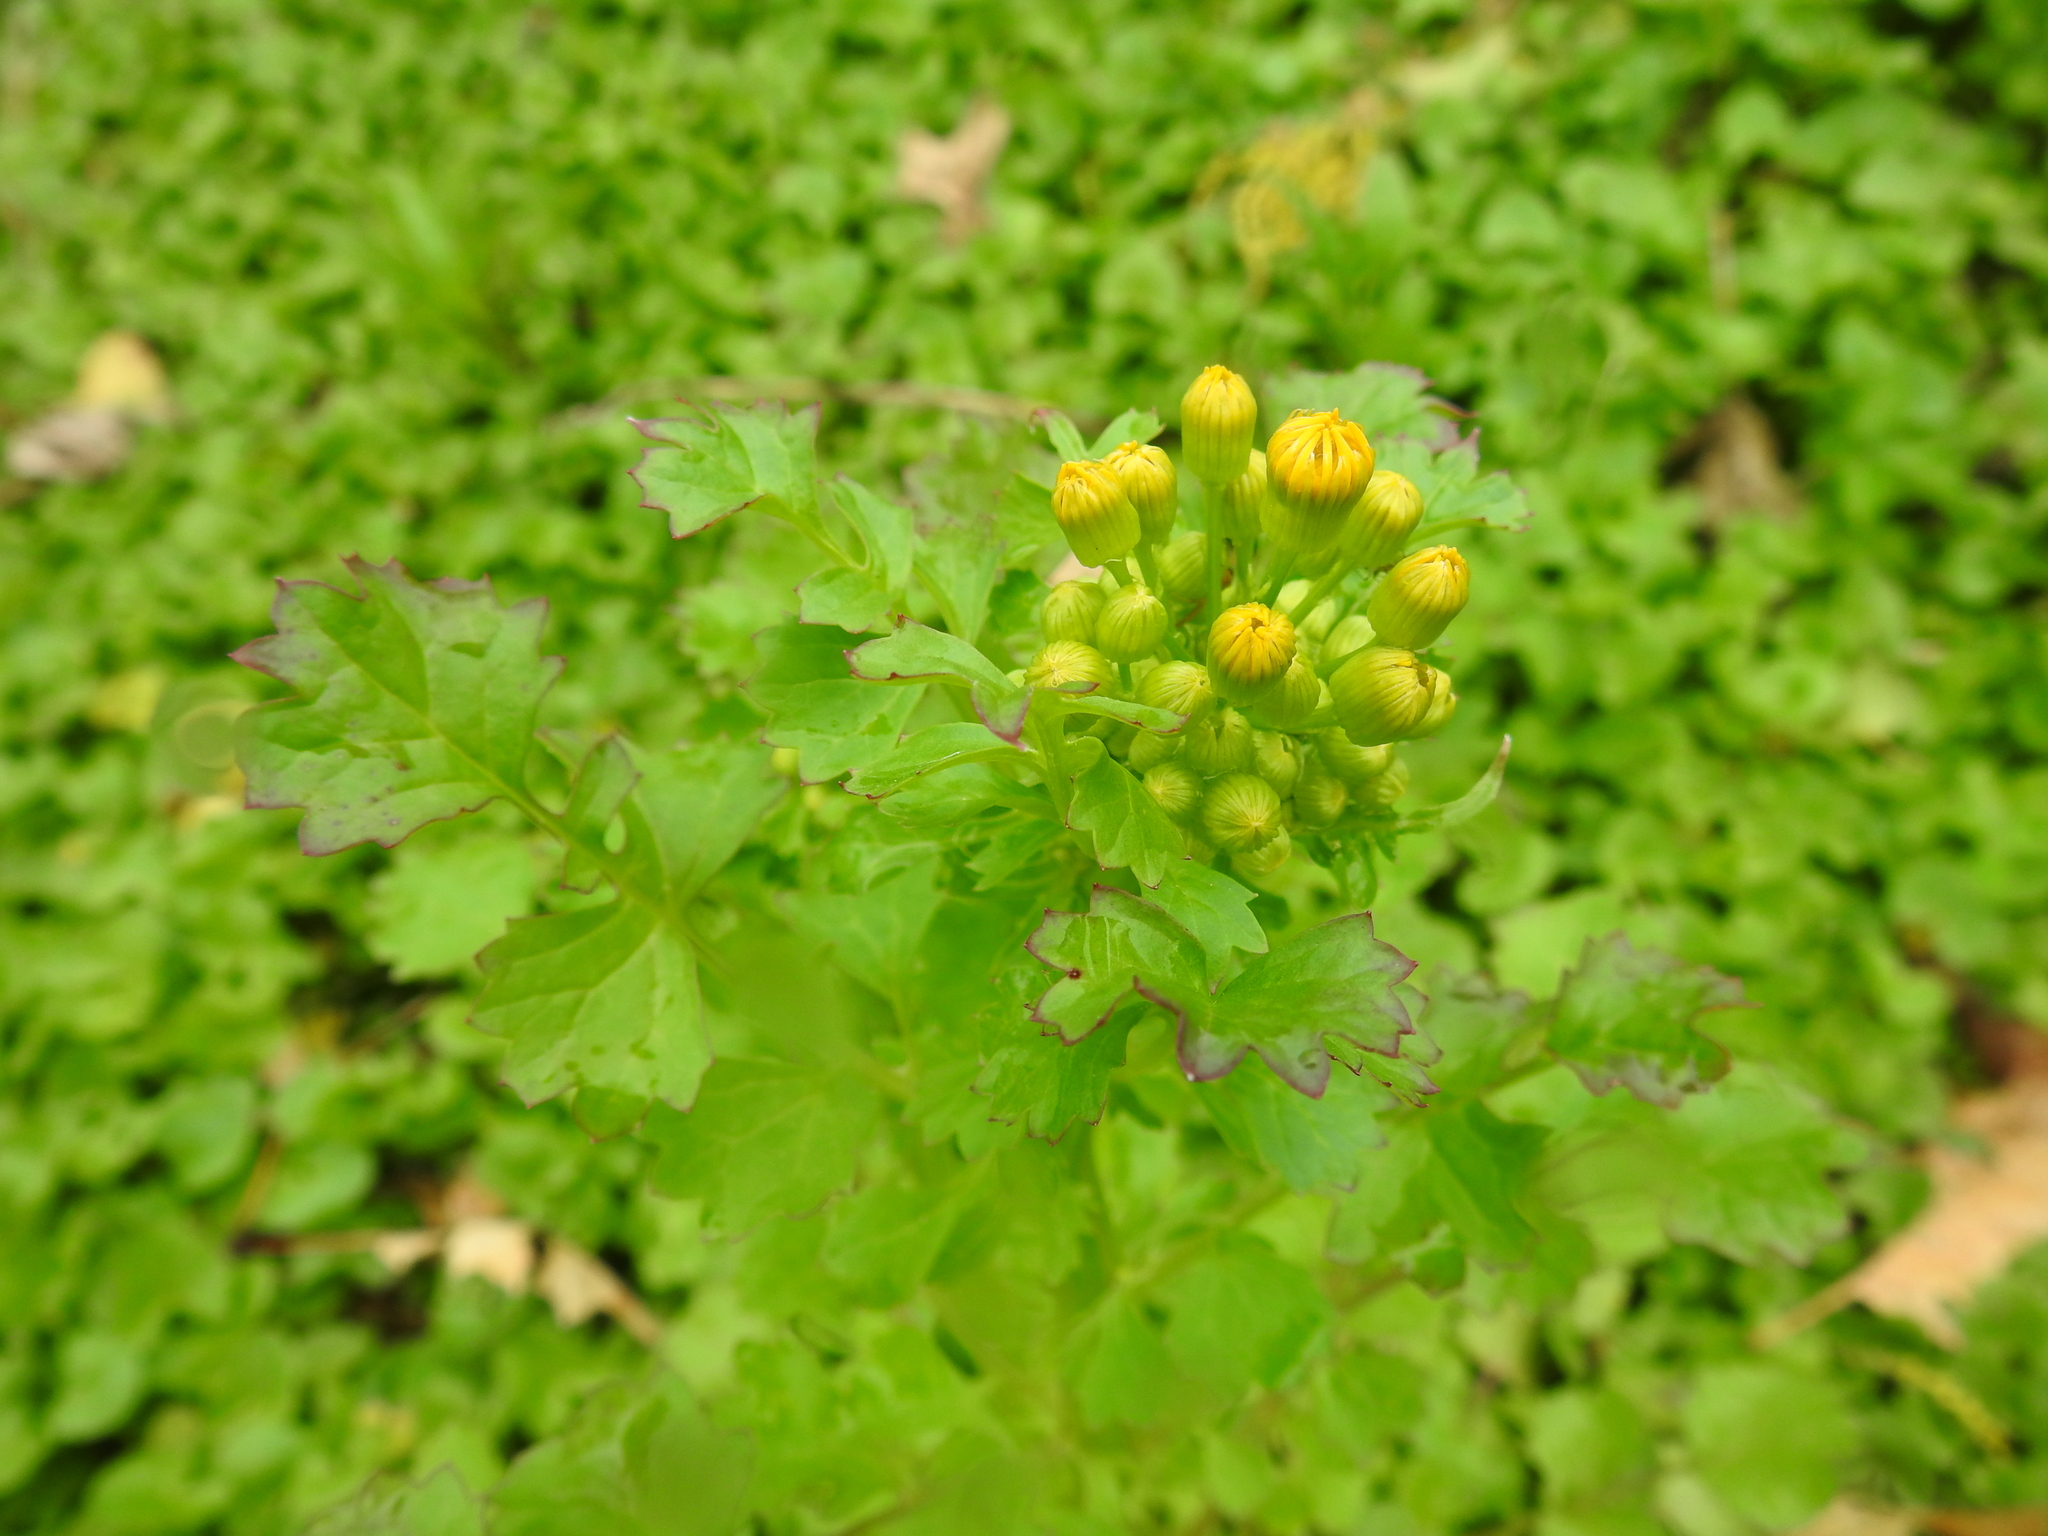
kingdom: Plantae
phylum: Tracheophyta
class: Magnoliopsida
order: Asterales
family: Asteraceae
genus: Packera
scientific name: Packera glabella
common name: Butterweed
